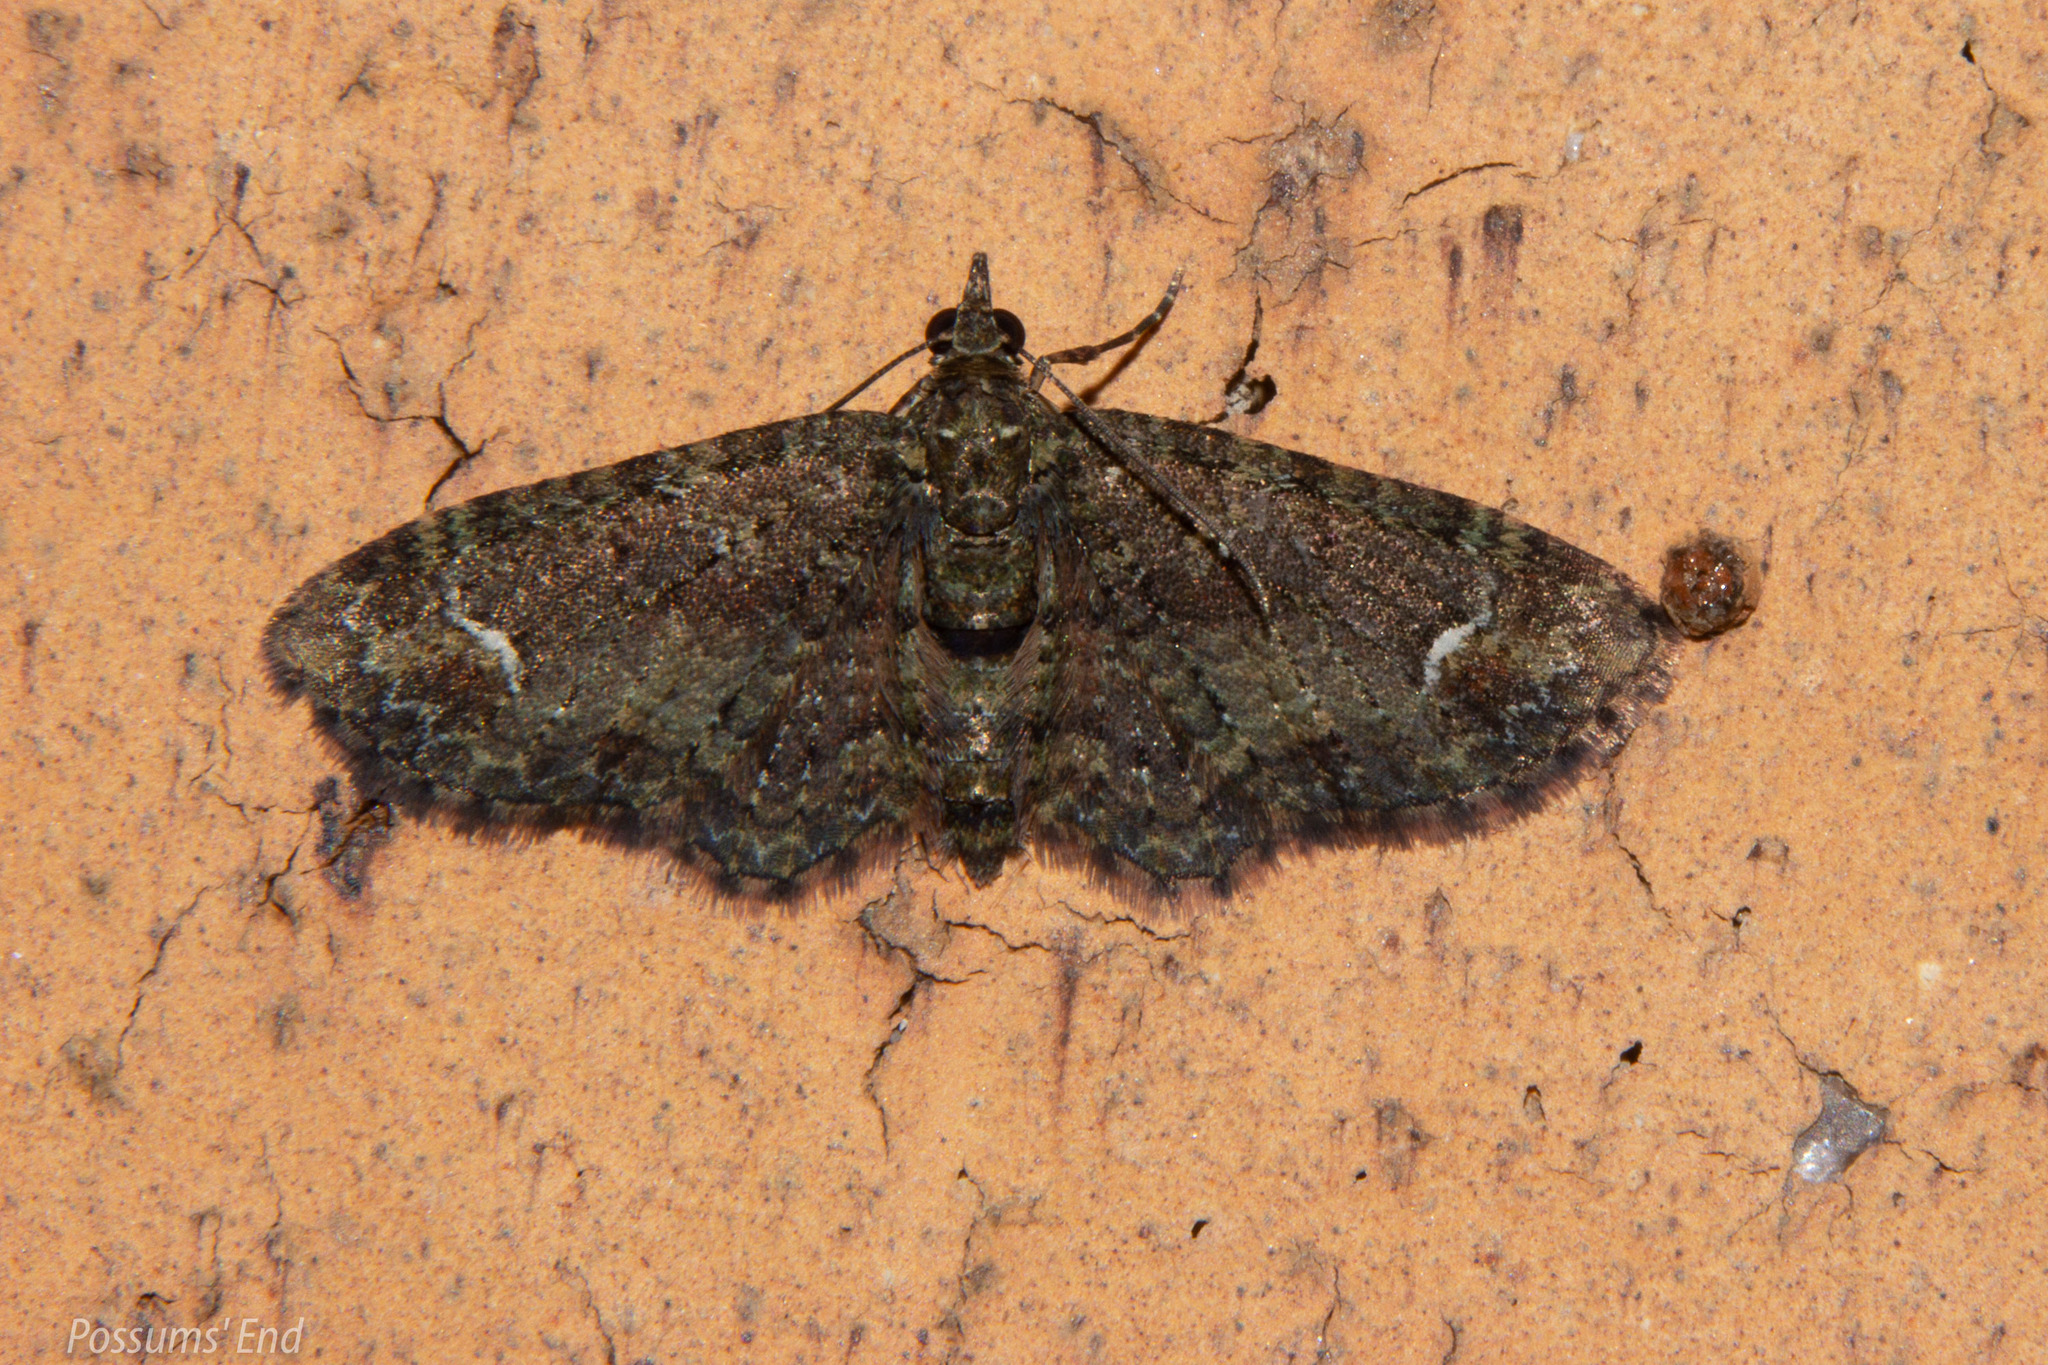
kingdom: Animalia
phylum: Arthropoda
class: Insecta
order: Lepidoptera
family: Geometridae
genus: Pasiphilodes
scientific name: Pasiphilodes testulata
